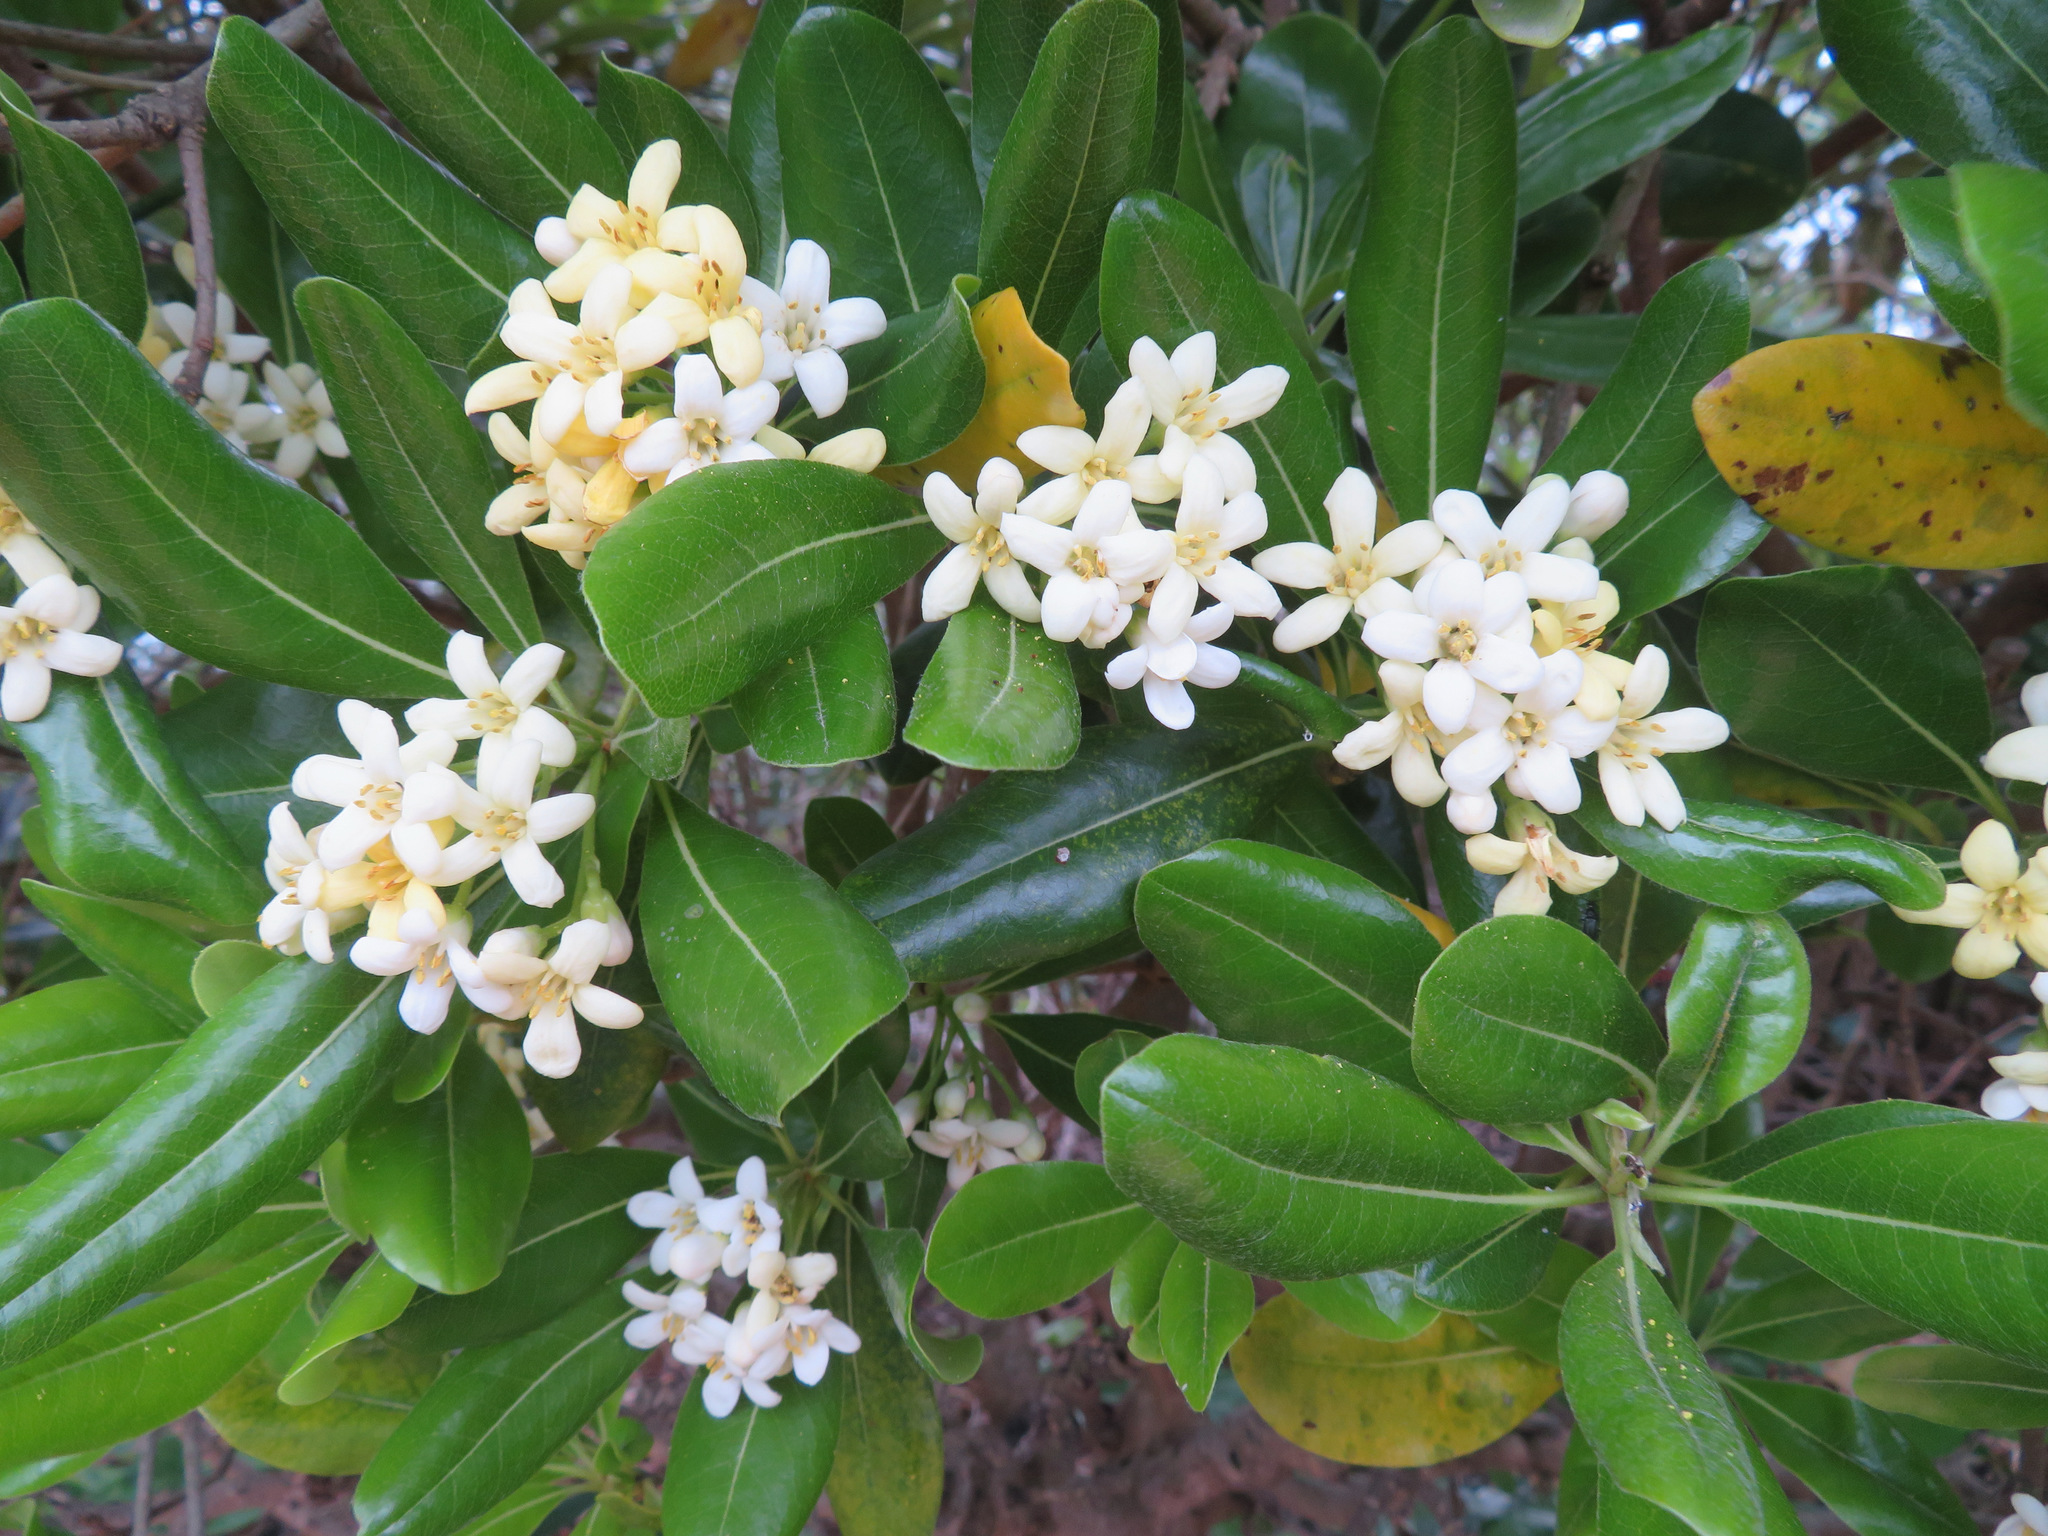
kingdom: Plantae
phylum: Tracheophyta
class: Magnoliopsida
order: Apiales
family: Pittosporaceae
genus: Pittosporum
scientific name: Pittosporum tobira
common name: Japanese cheesewood
